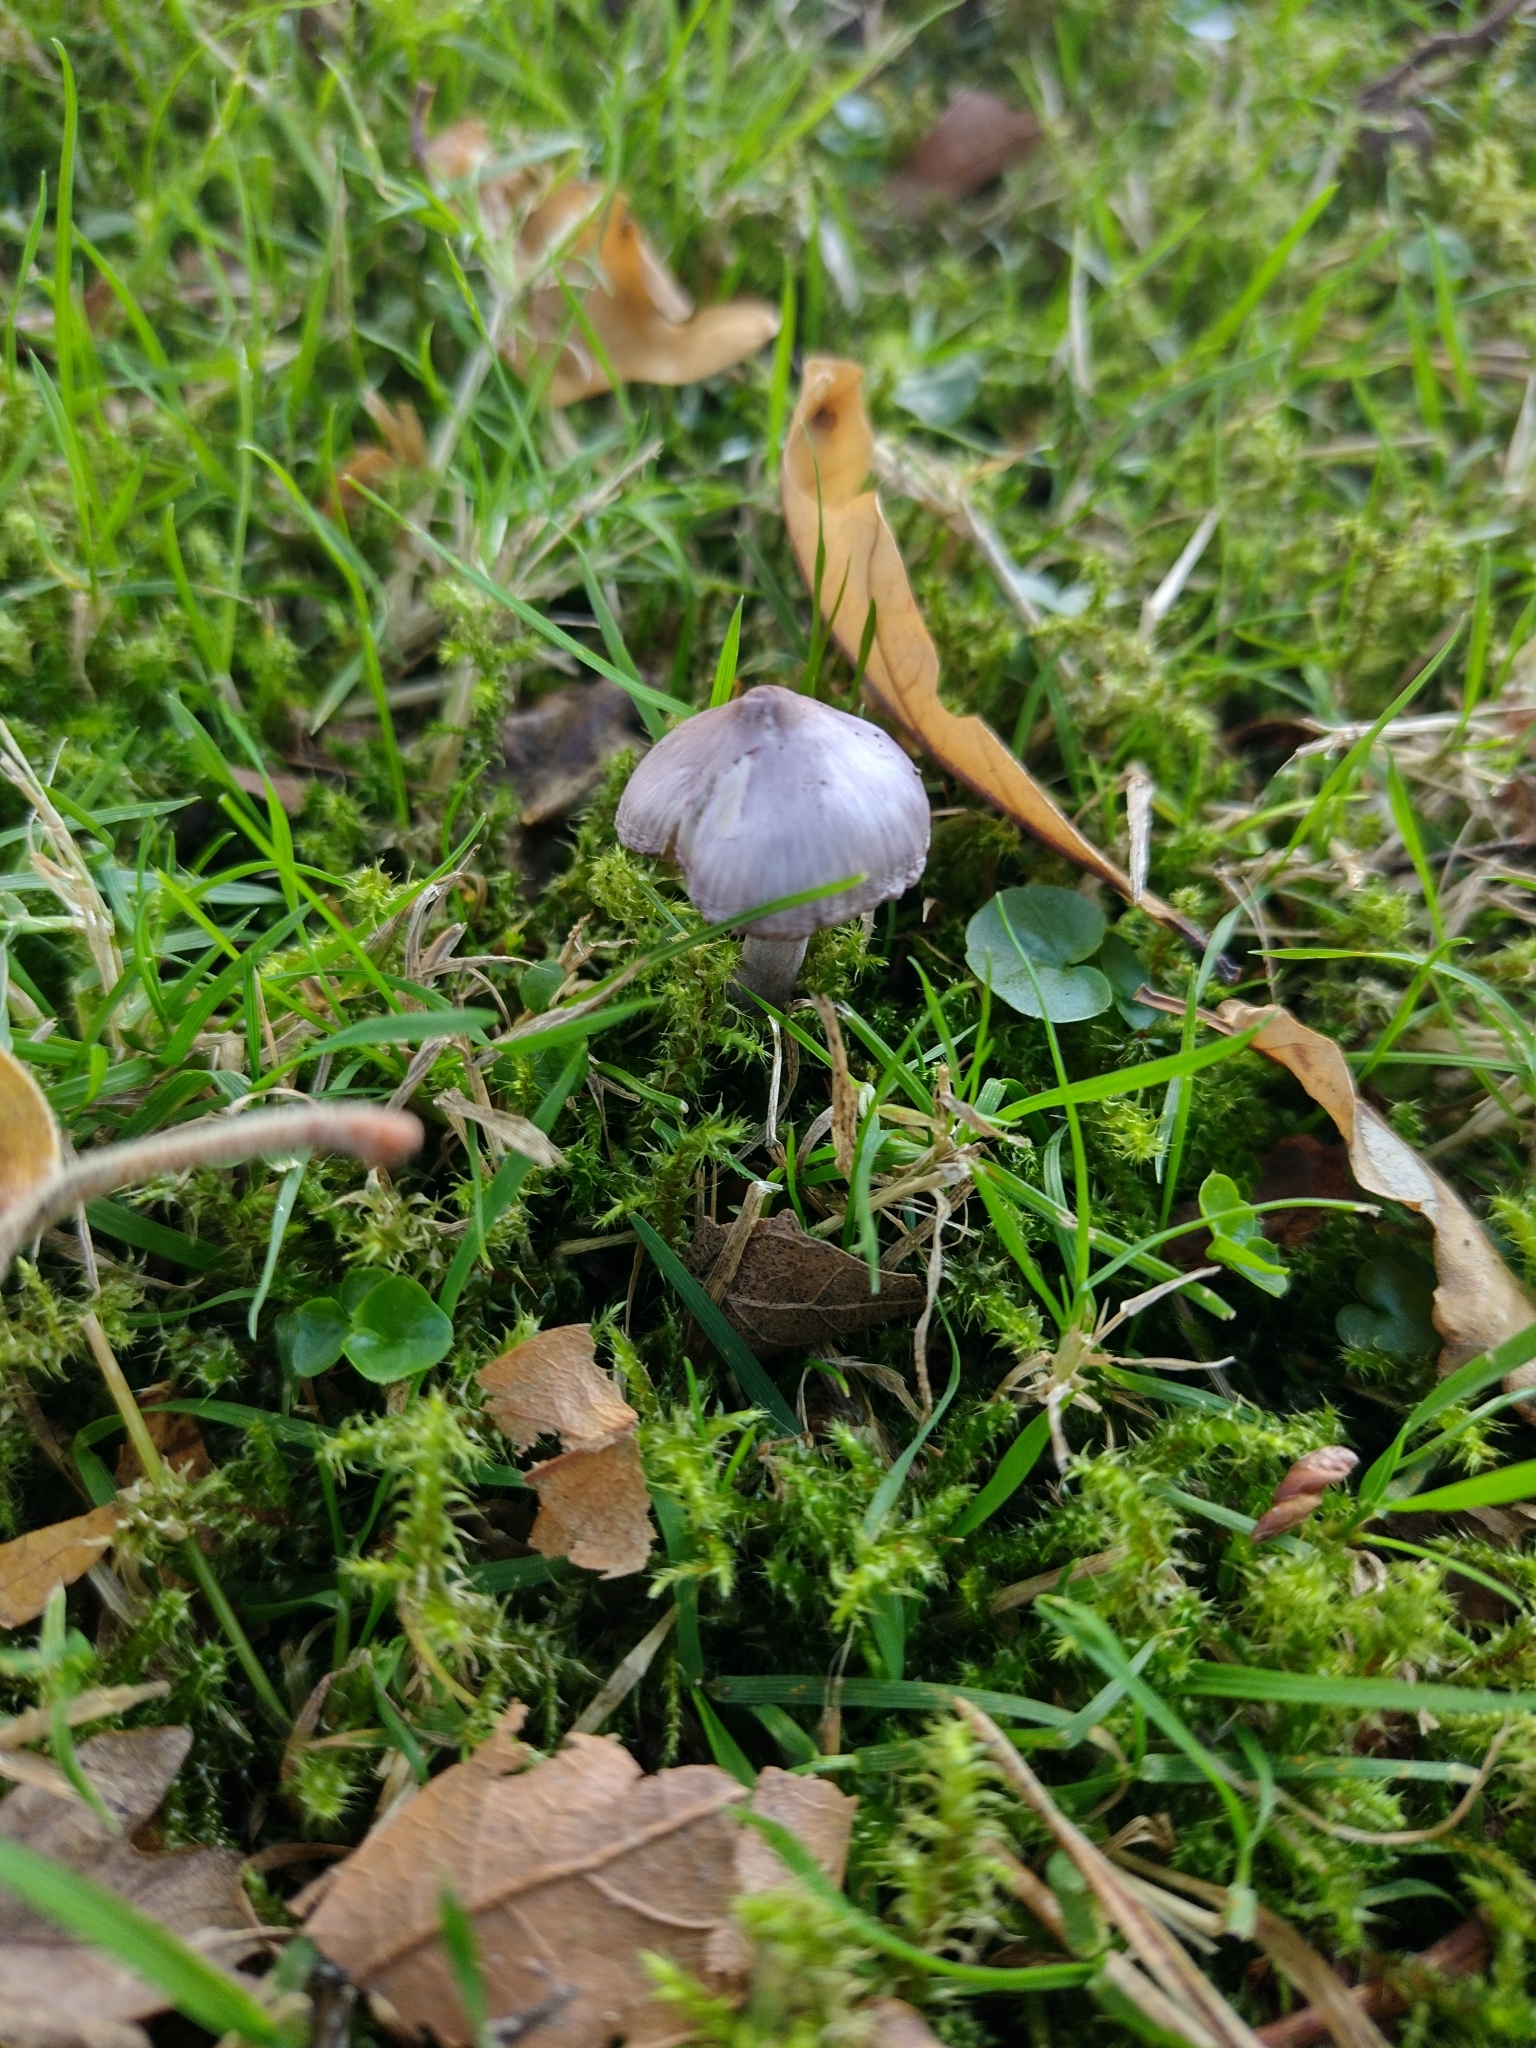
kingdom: Fungi
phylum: Basidiomycota
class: Agaricomycetes
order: Agaricales
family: Inocybaceae
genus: Inocybe
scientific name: Inocybe geophylla
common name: White fibrecap
